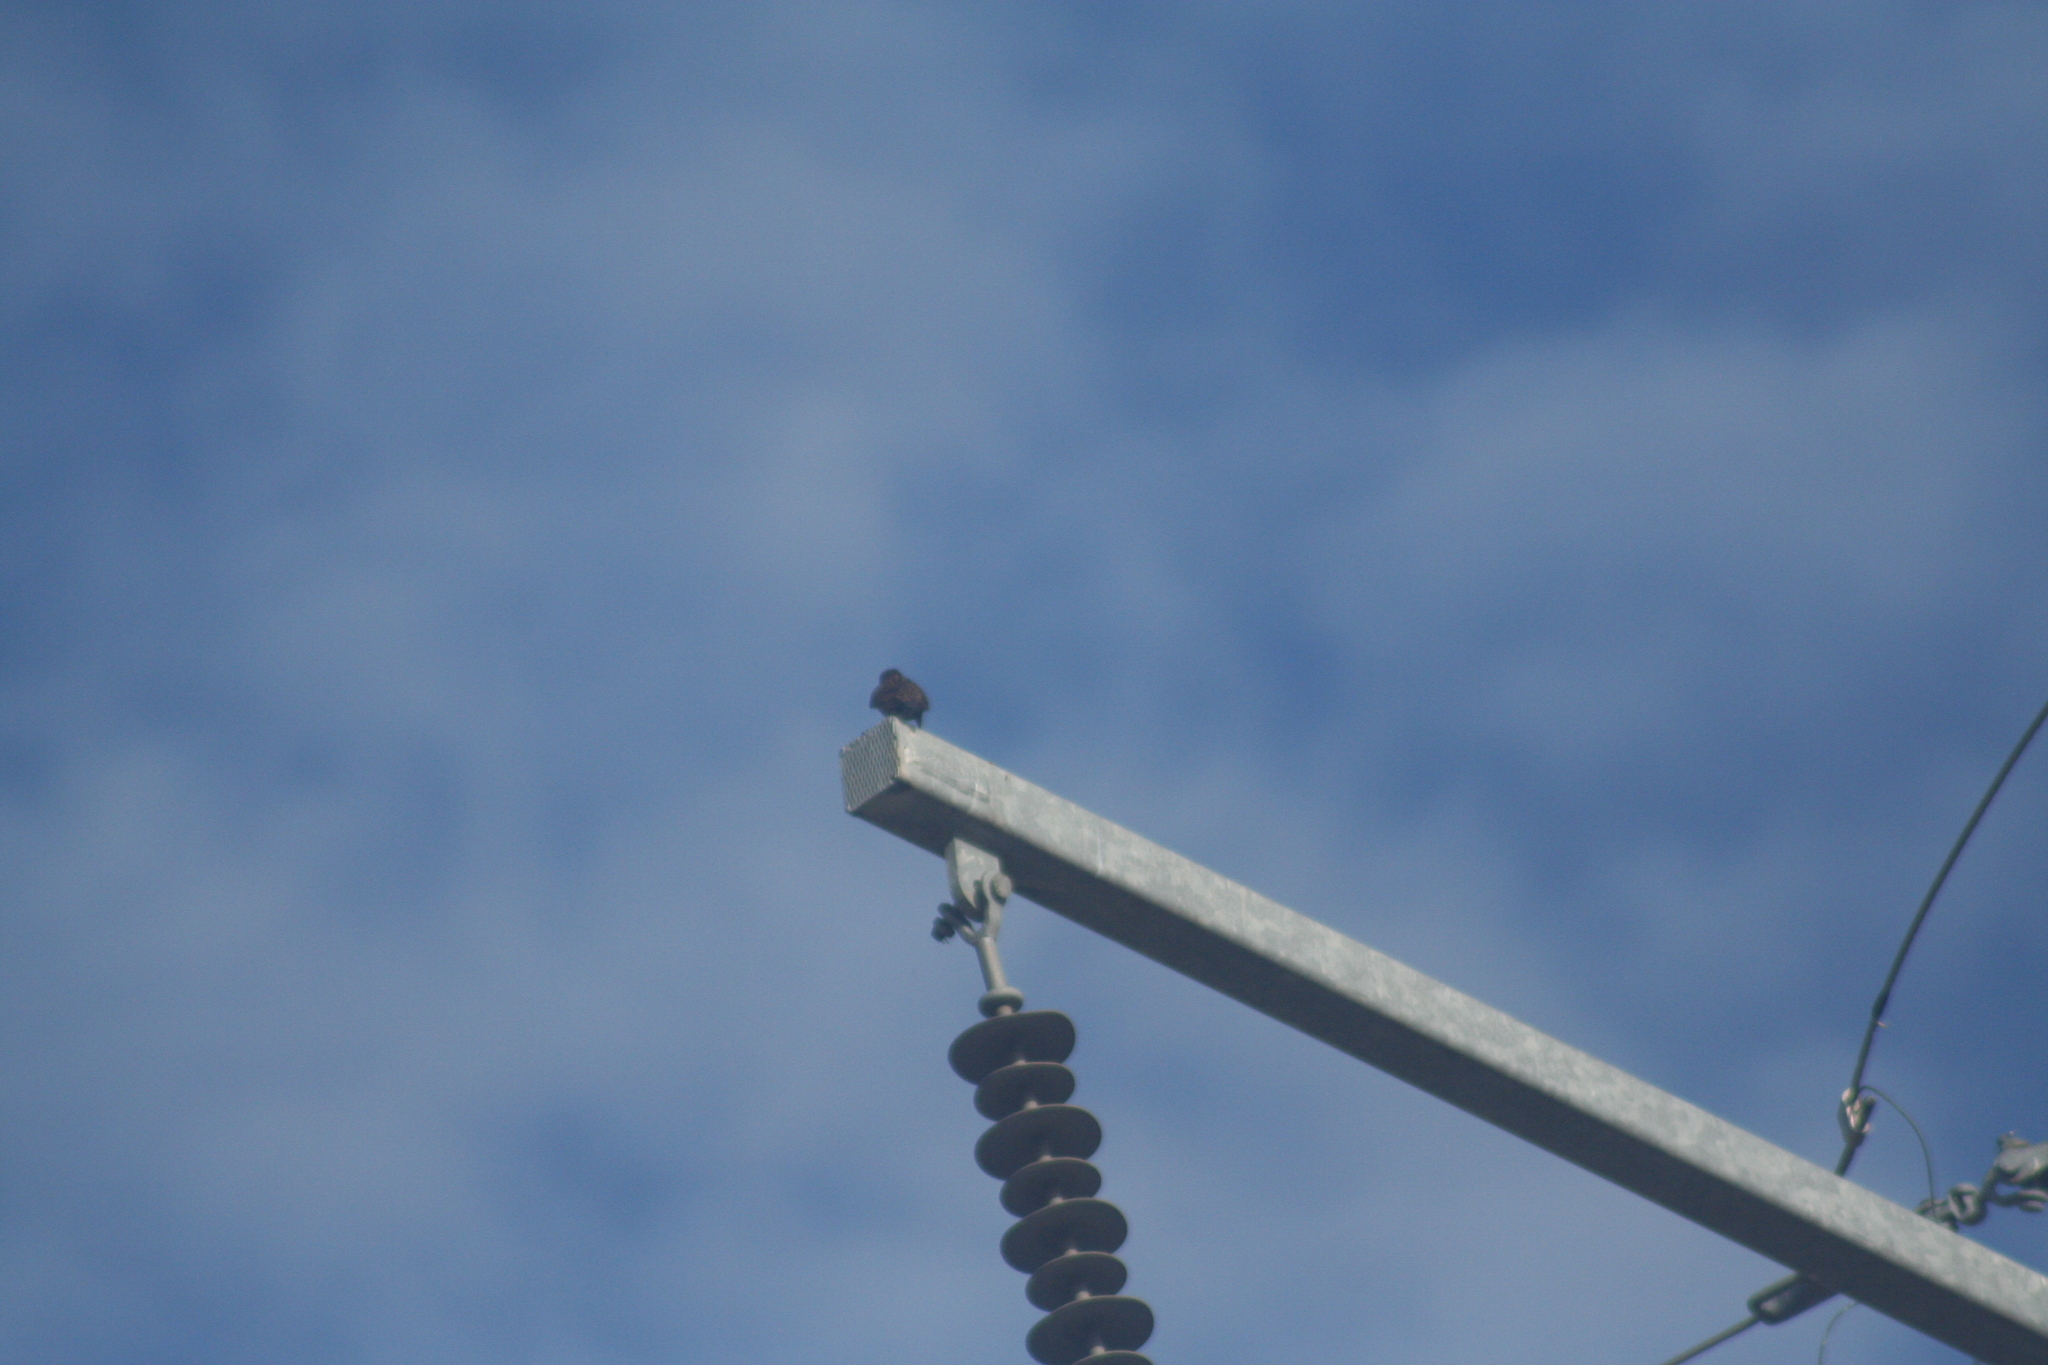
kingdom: Animalia
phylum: Chordata
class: Aves
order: Passeriformes
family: Sturnidae
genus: Sturnus
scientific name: Sturnus vulgaris
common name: Common starling
